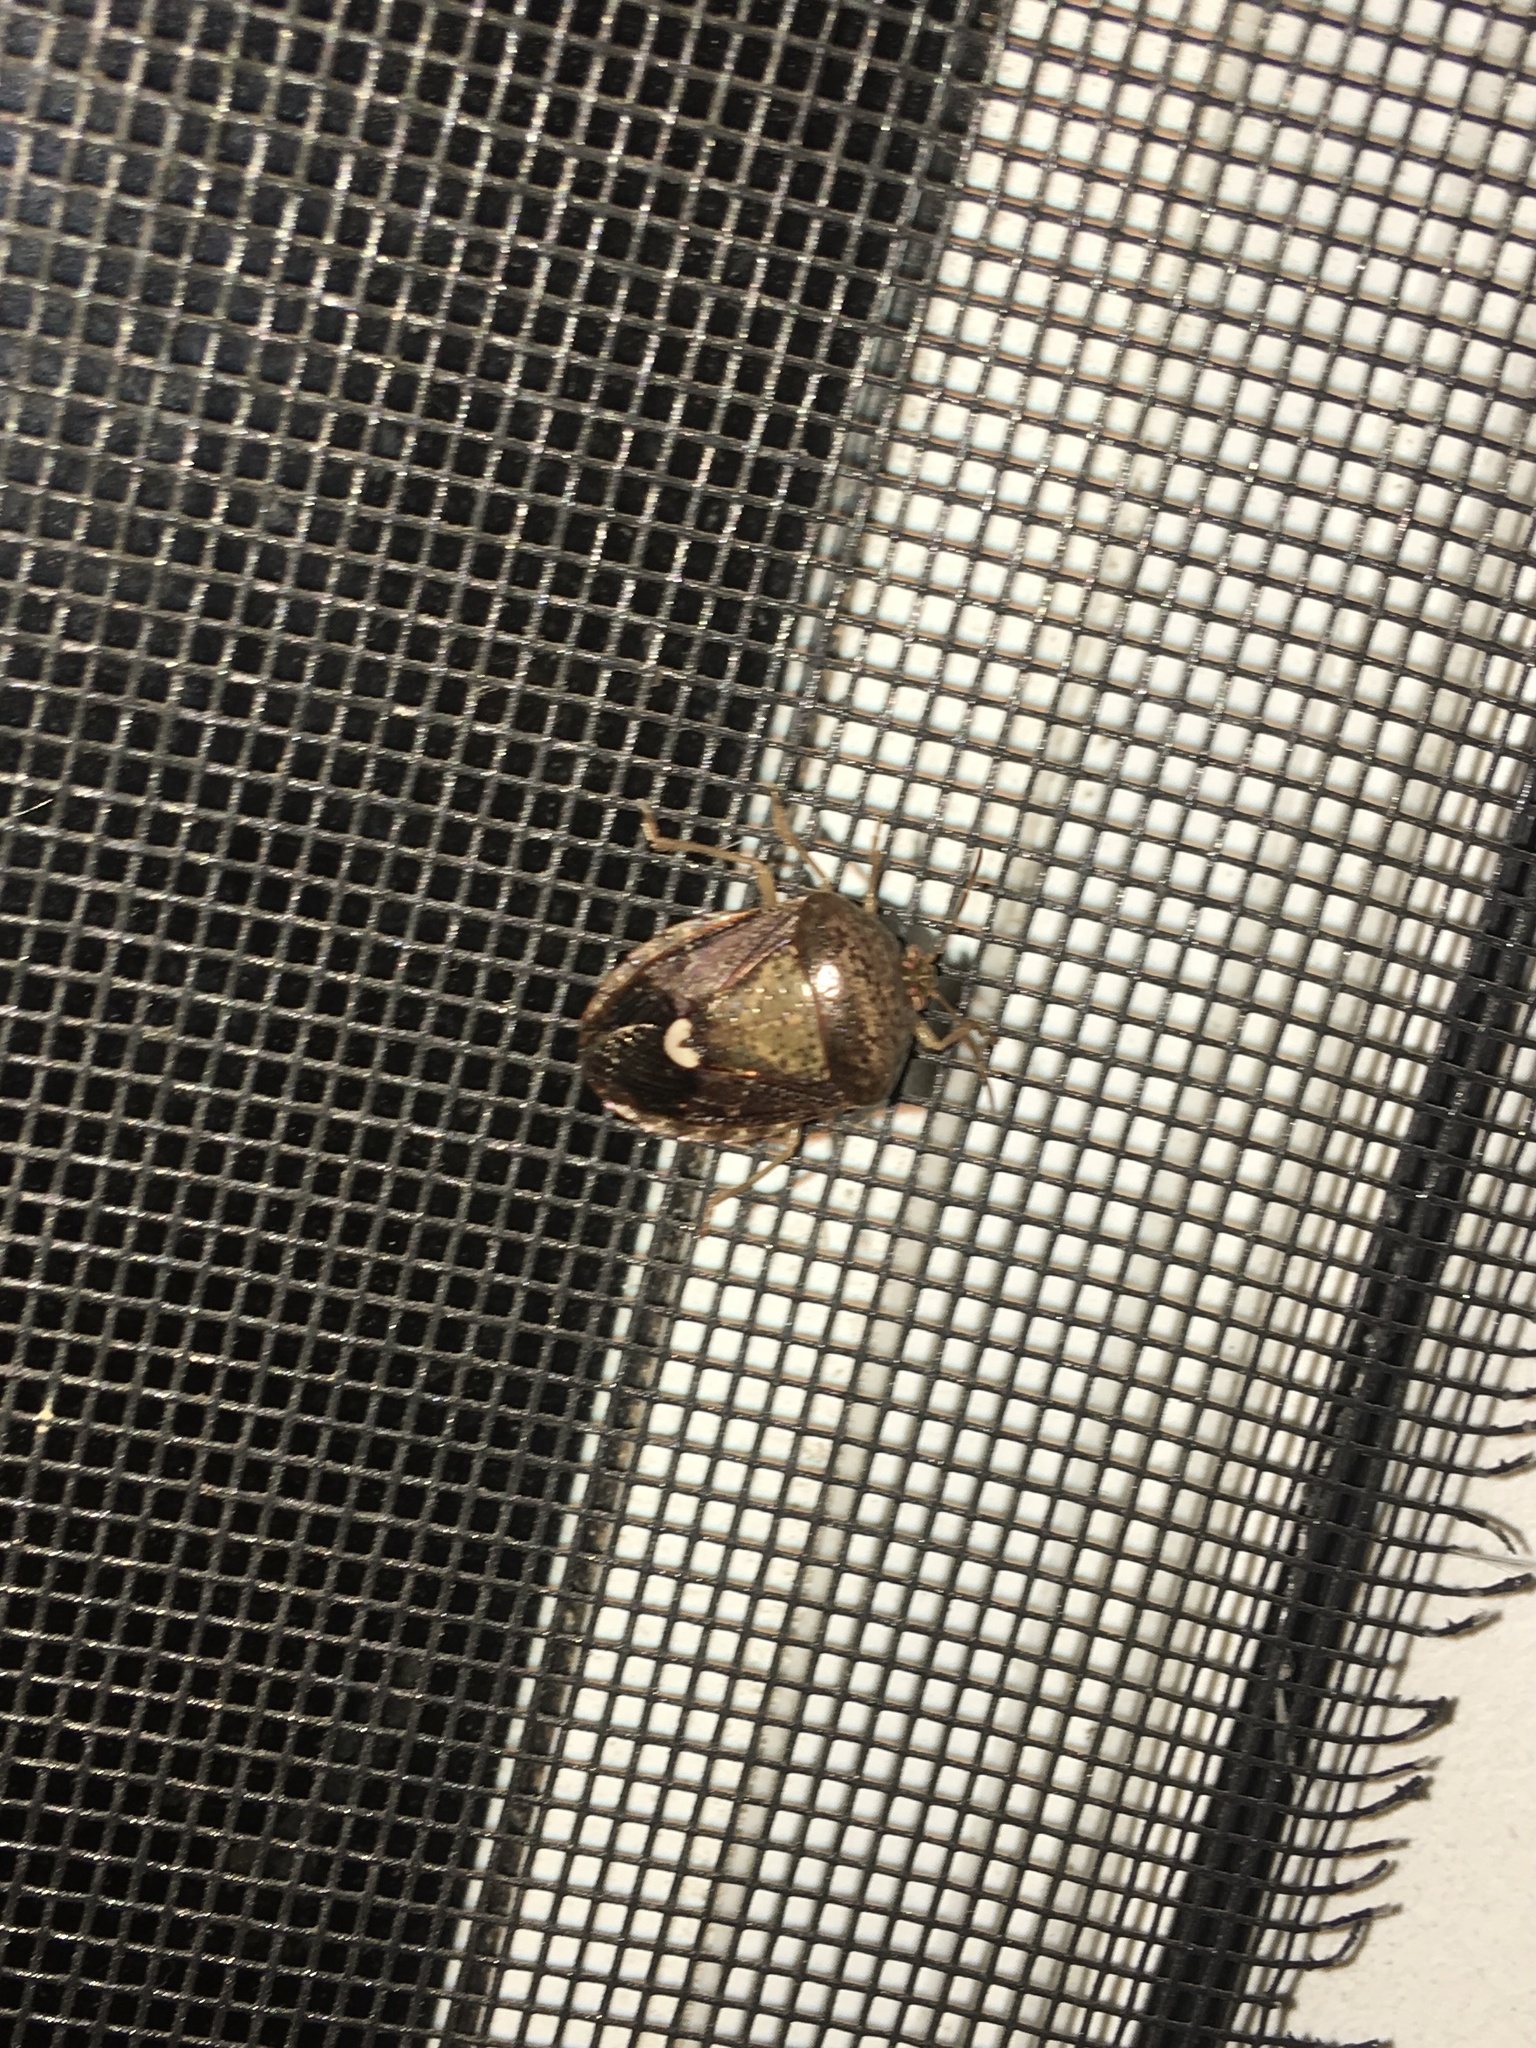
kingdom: Animalia
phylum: Arthropoda
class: Insecta
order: Hemiptera
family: Pentatomidae
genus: Edessa
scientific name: Edessa bifida
